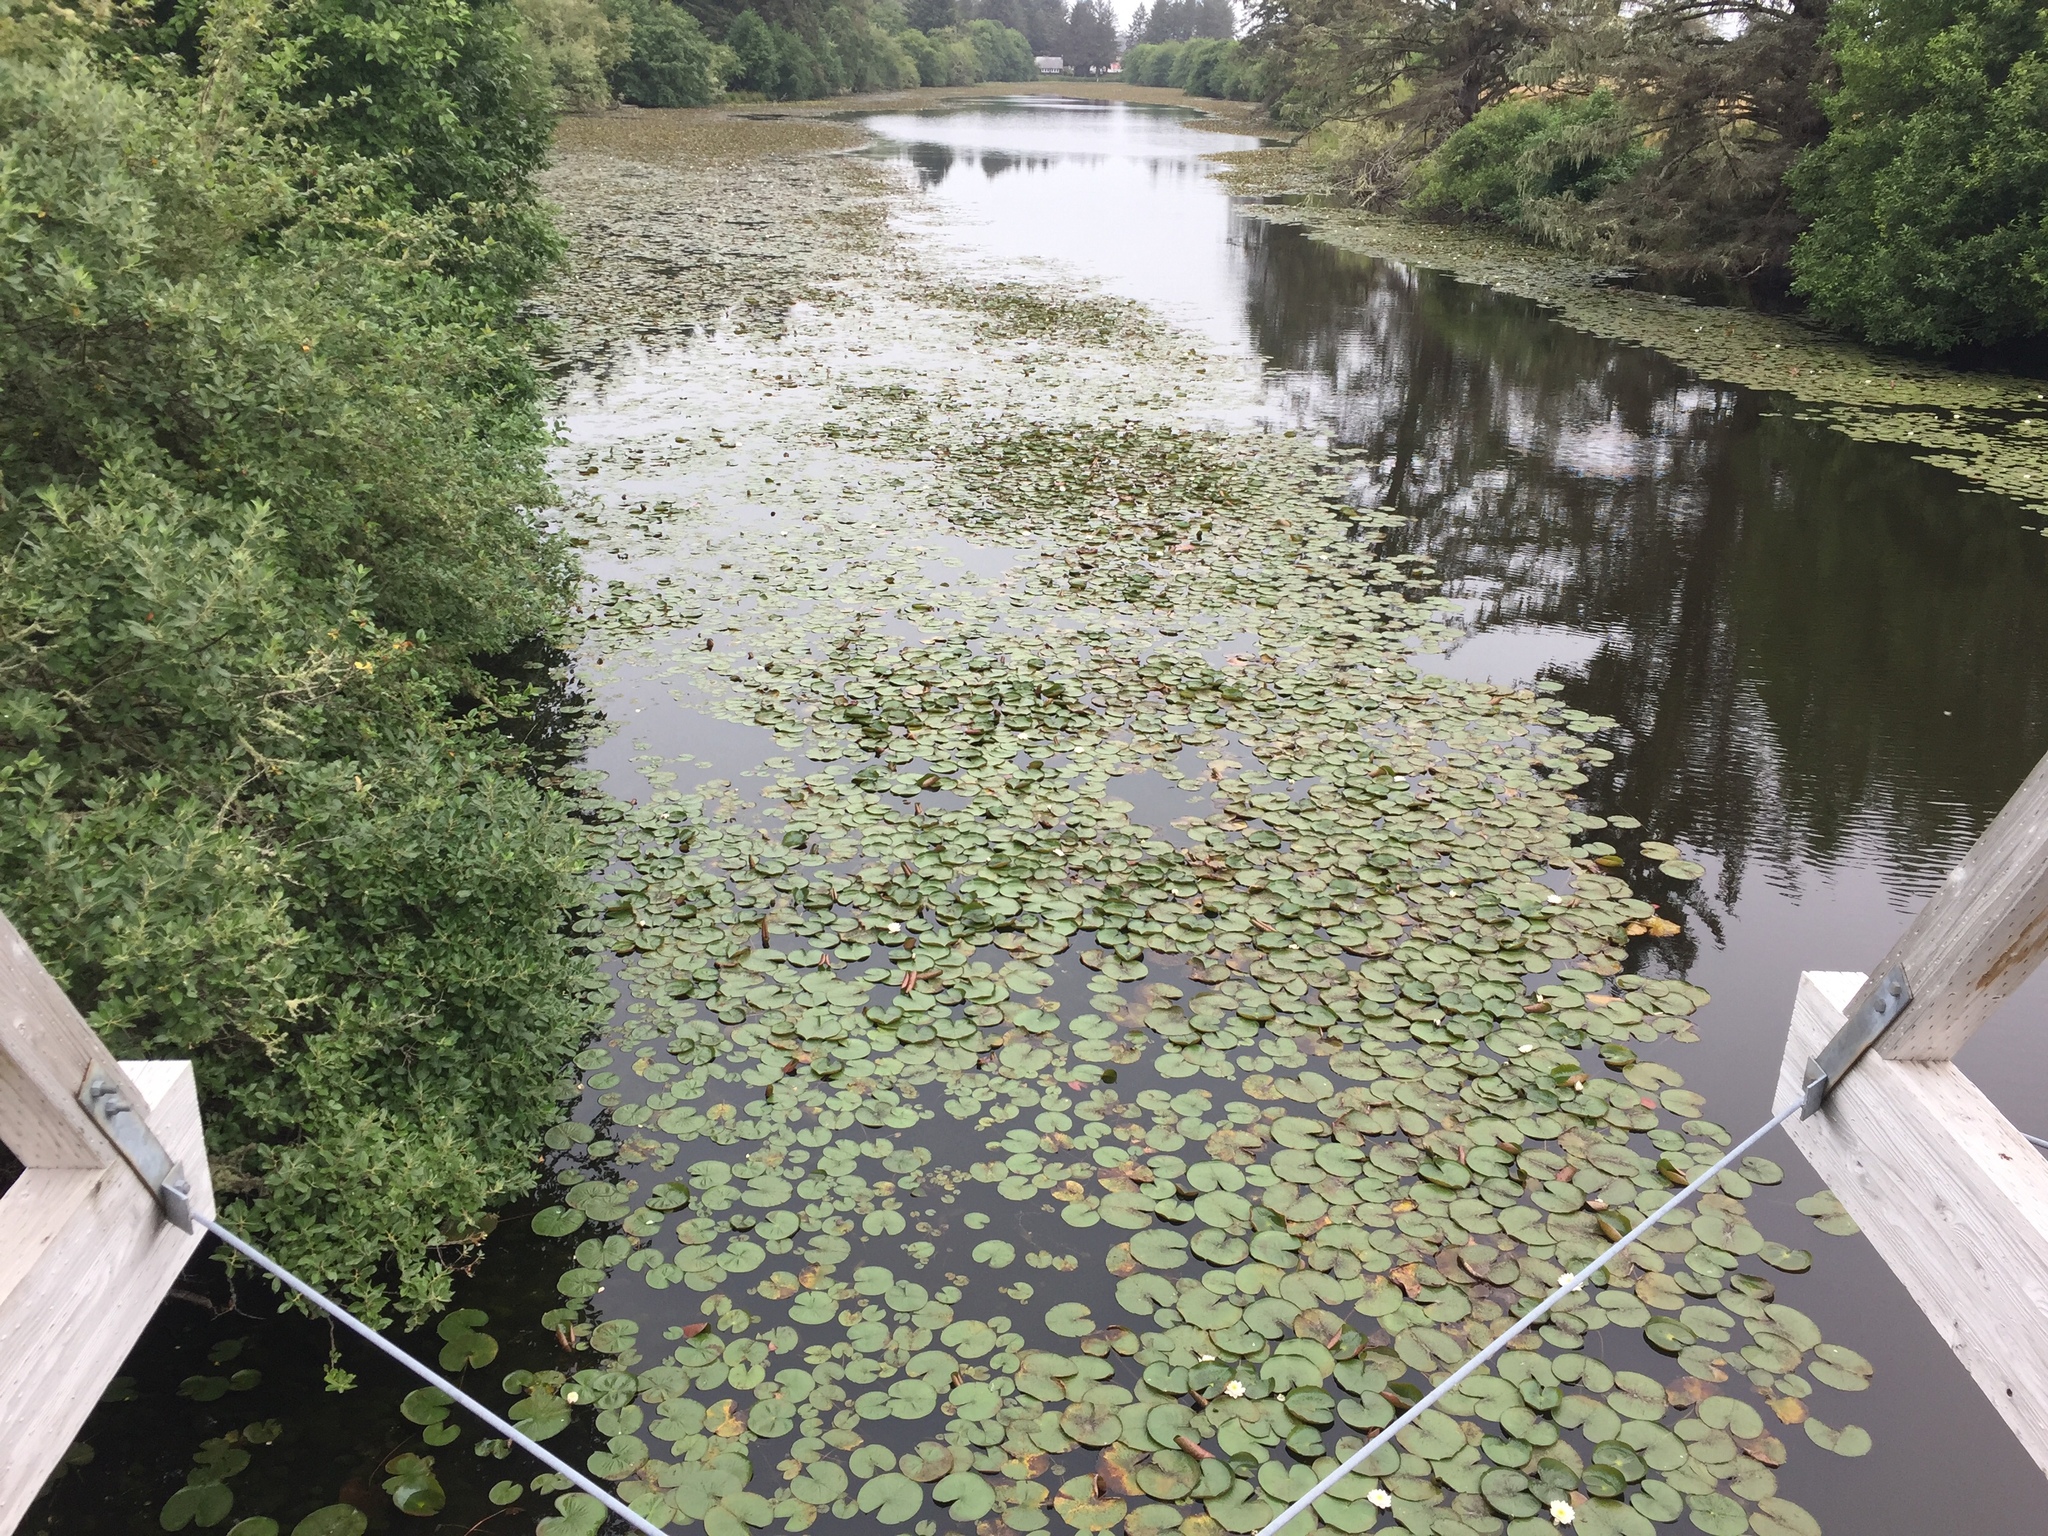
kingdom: Plantae
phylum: Tracheophyta
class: Magnoliopsida
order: Nymphaeales
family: Nymphaeaceae
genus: Nymphaea
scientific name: Nymphaea odorata
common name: Fragrant water-lily
